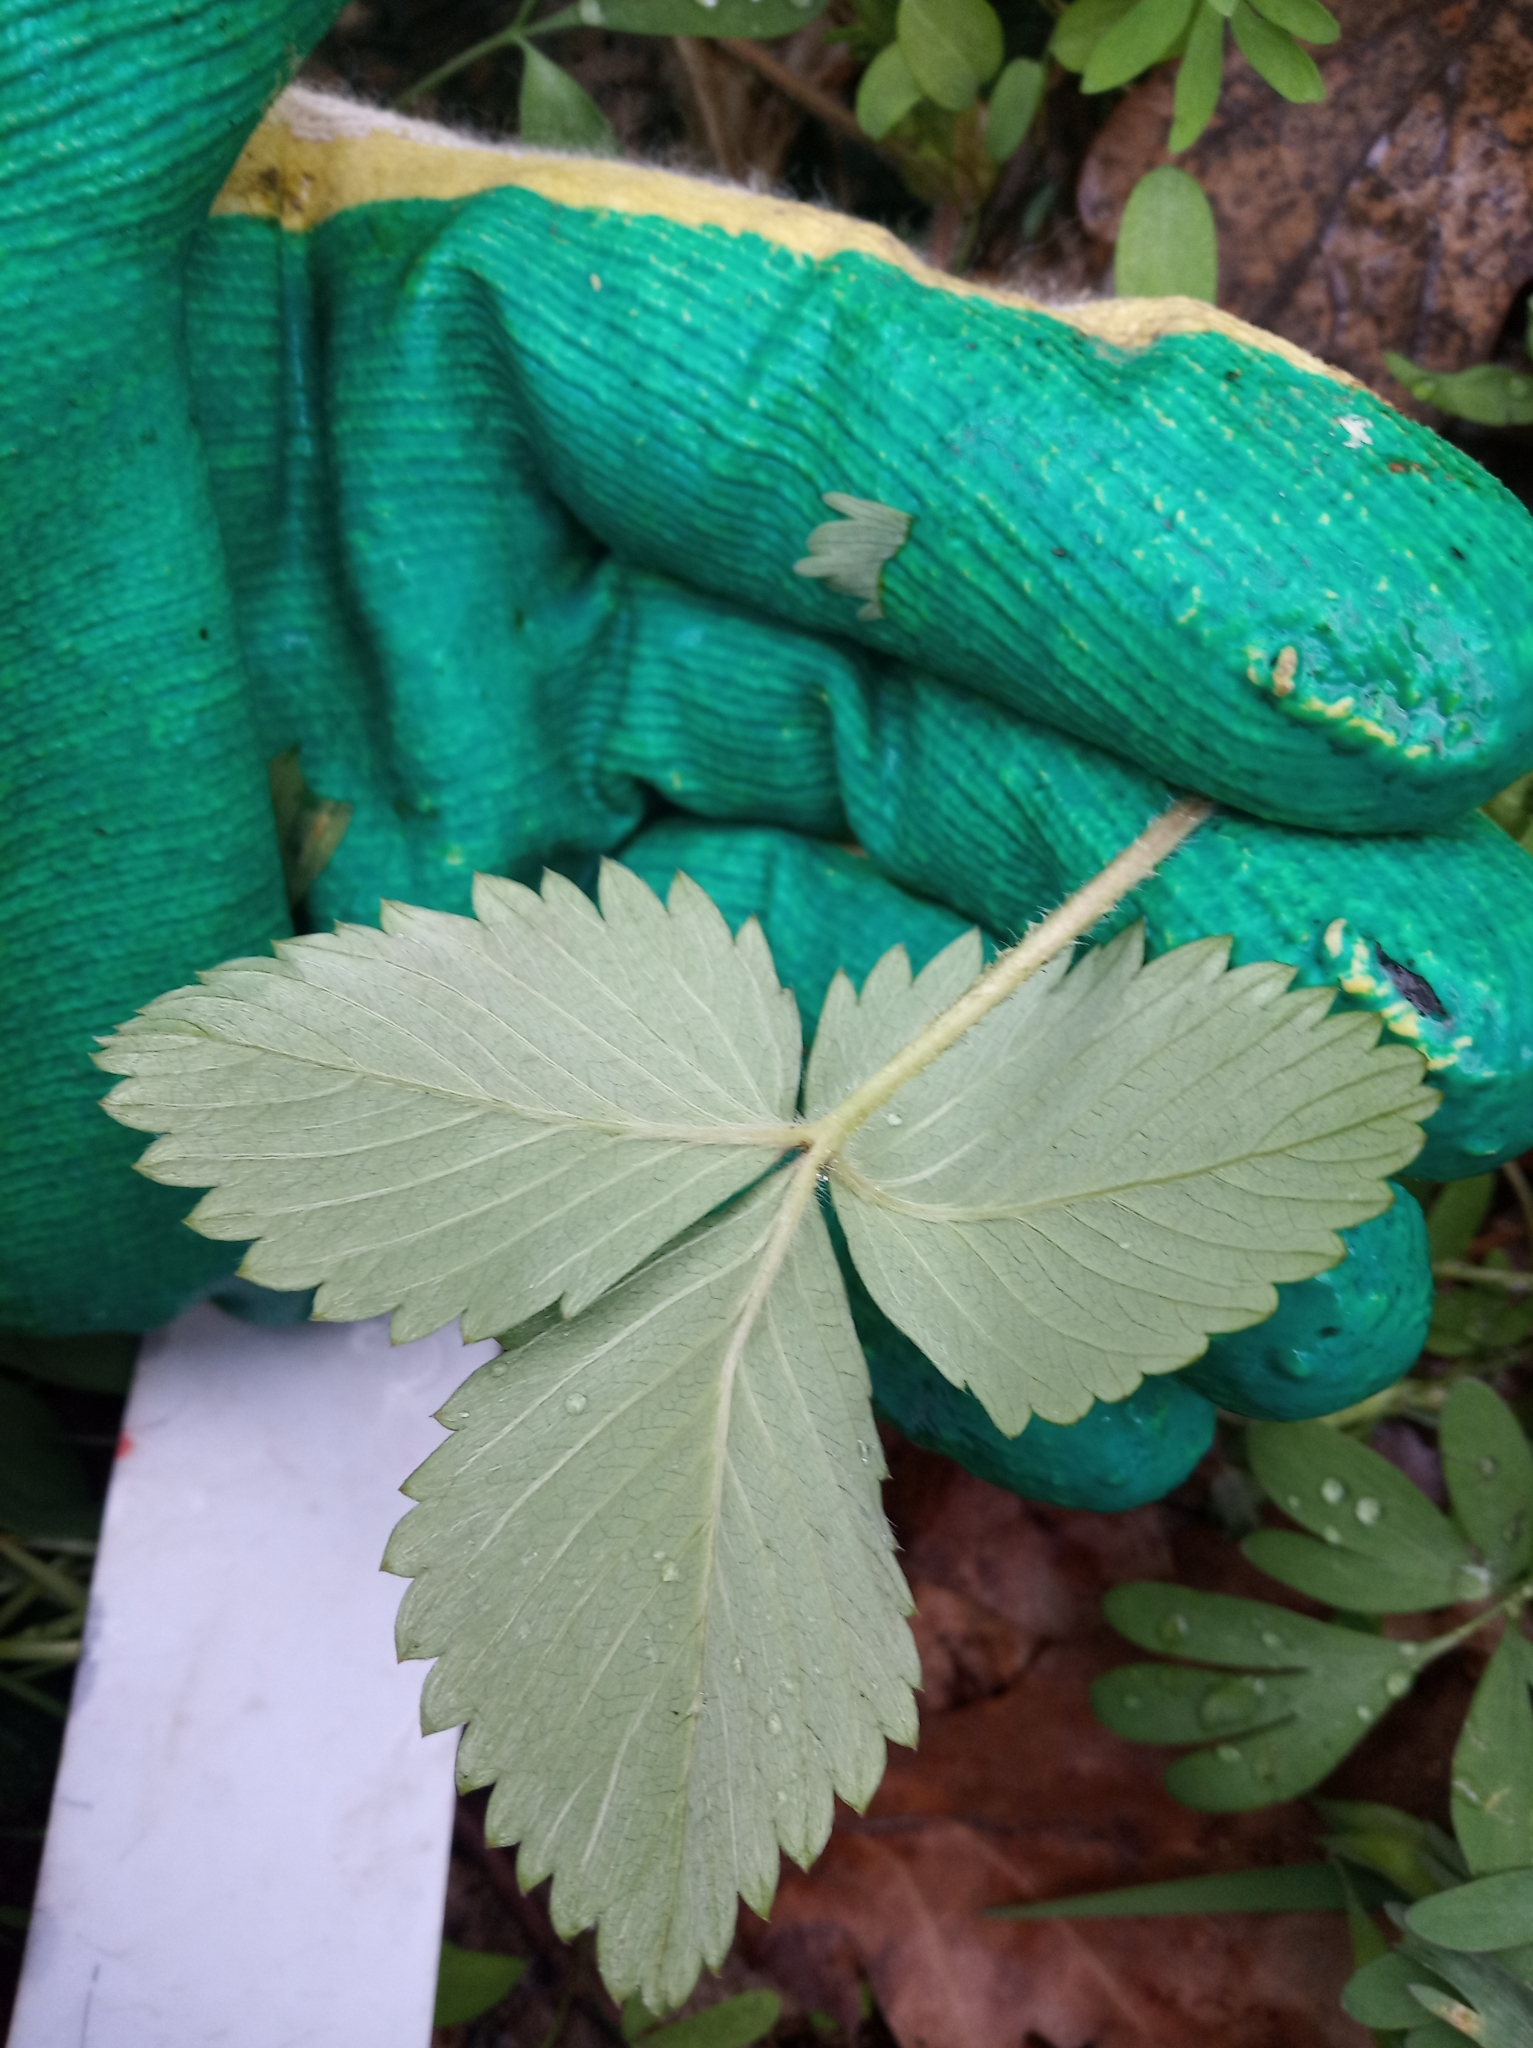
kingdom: Plantae
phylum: Tracheophyta
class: Magnoliopsida
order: Rosales
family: Rosaceae
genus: Fragaria
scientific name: Fragaria vesca
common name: Wild strawberry
